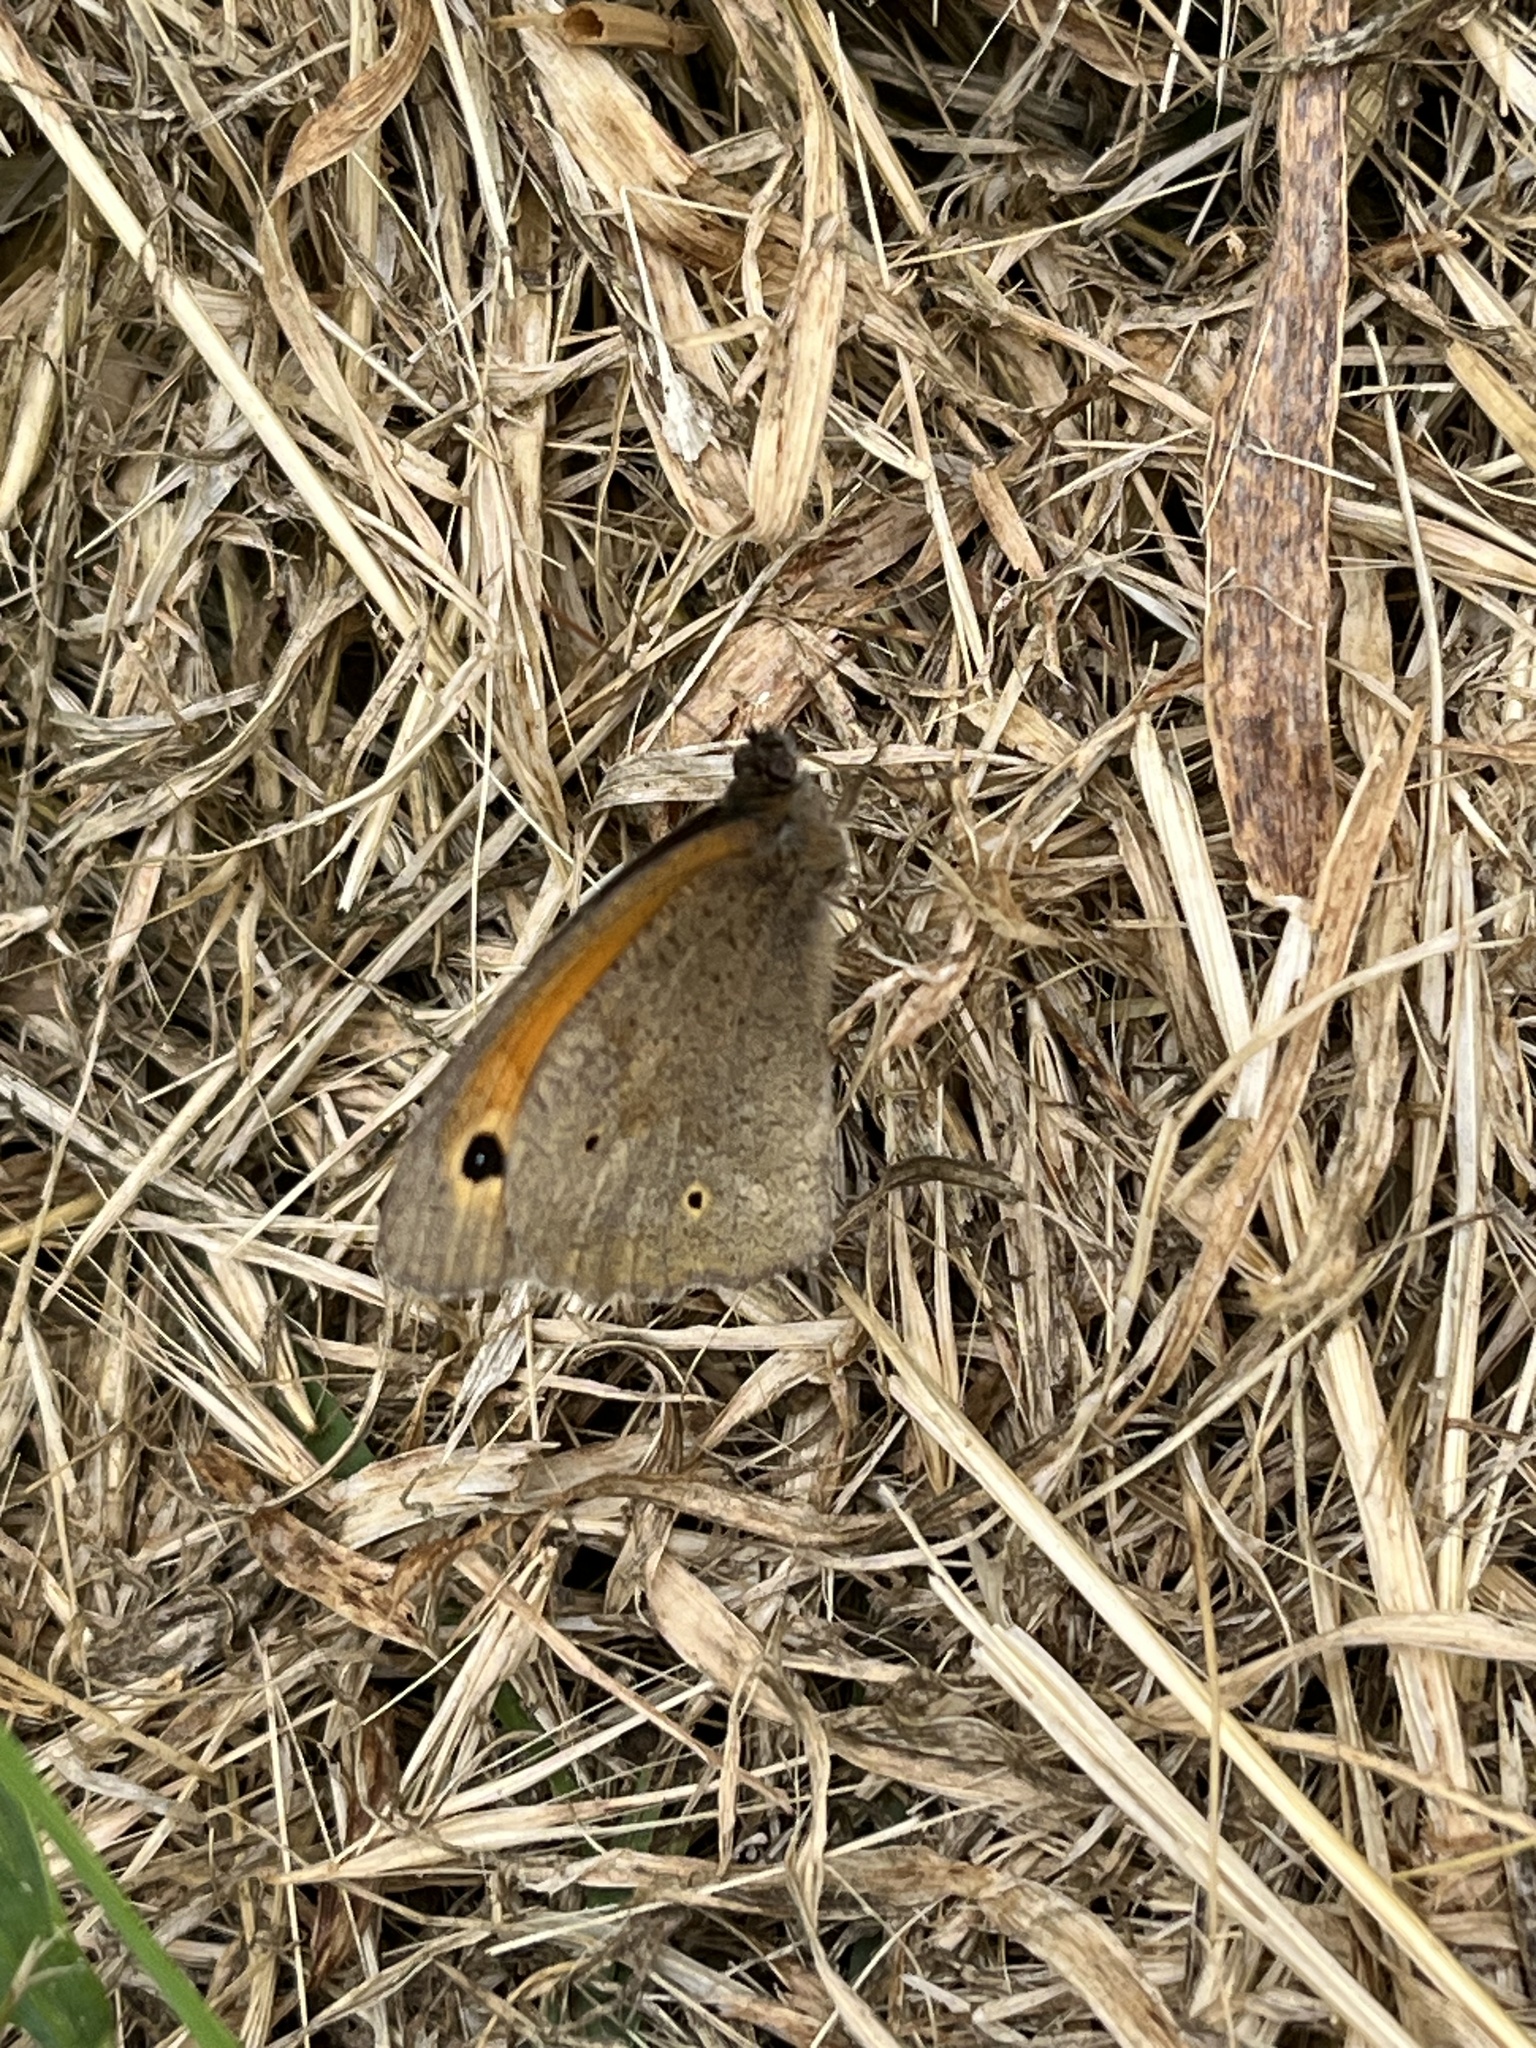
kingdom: Animalia
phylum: Arthropoda
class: Insecta
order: Lepidoptera
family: Nymphalidae
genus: Maniola
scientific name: Maniola jurtina
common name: Meadow brown
